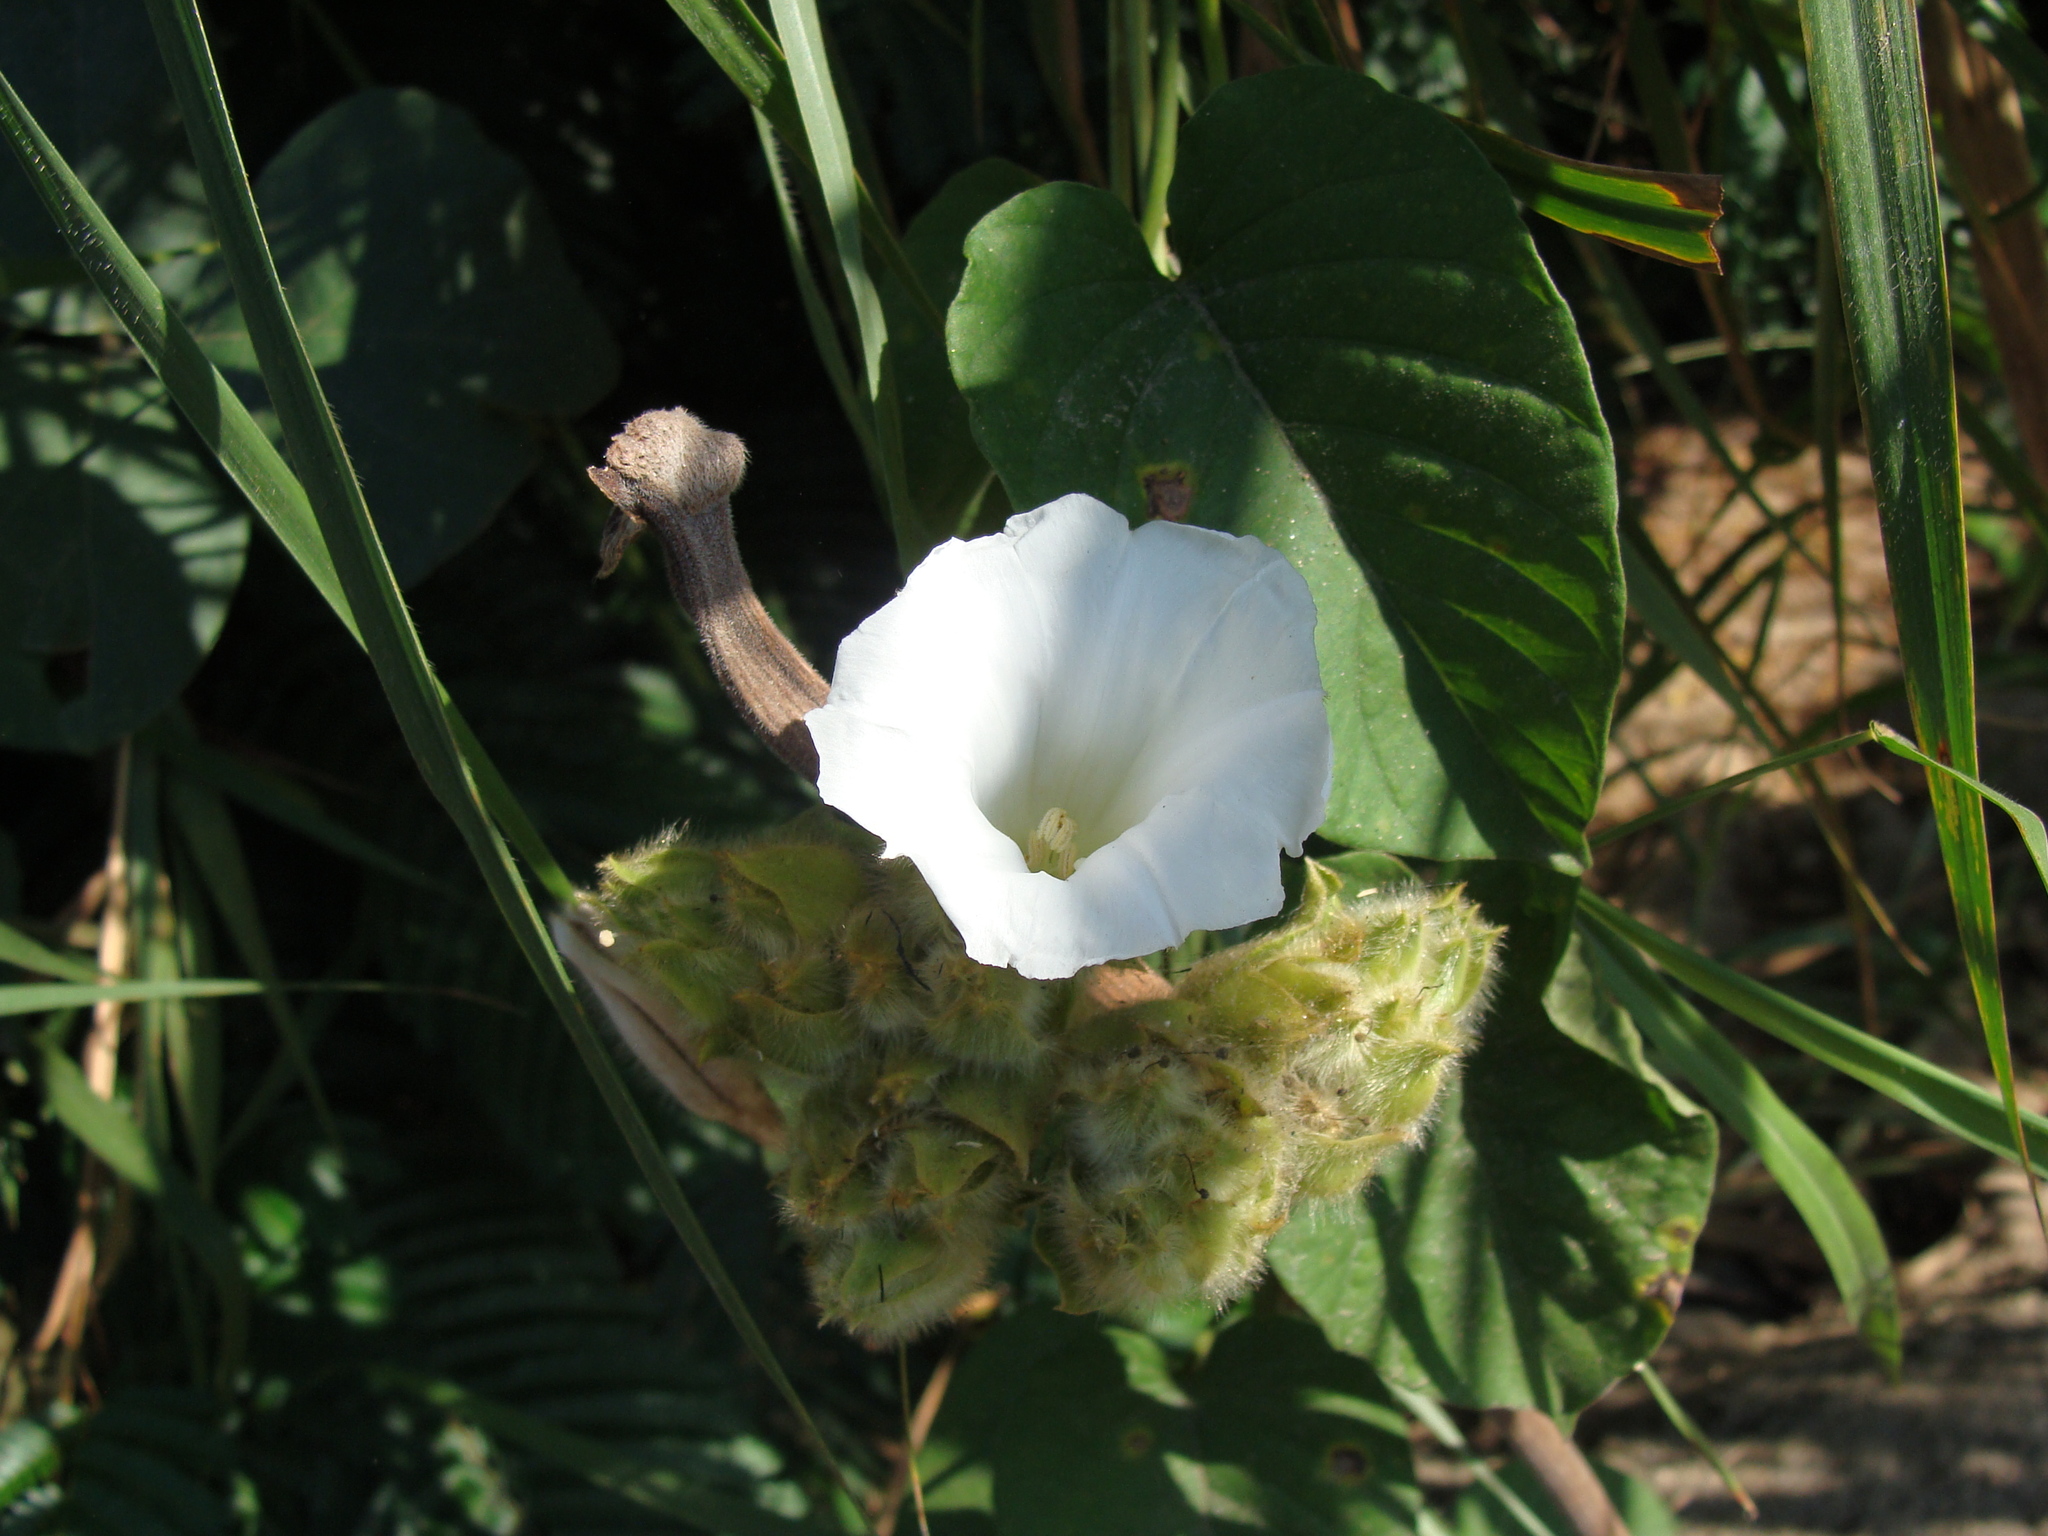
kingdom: Plantae
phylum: Tracheophyta
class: Magnoliopsida
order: Solanales
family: Convolvulaceae
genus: Odonellia
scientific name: Odonellia hirtiflora
